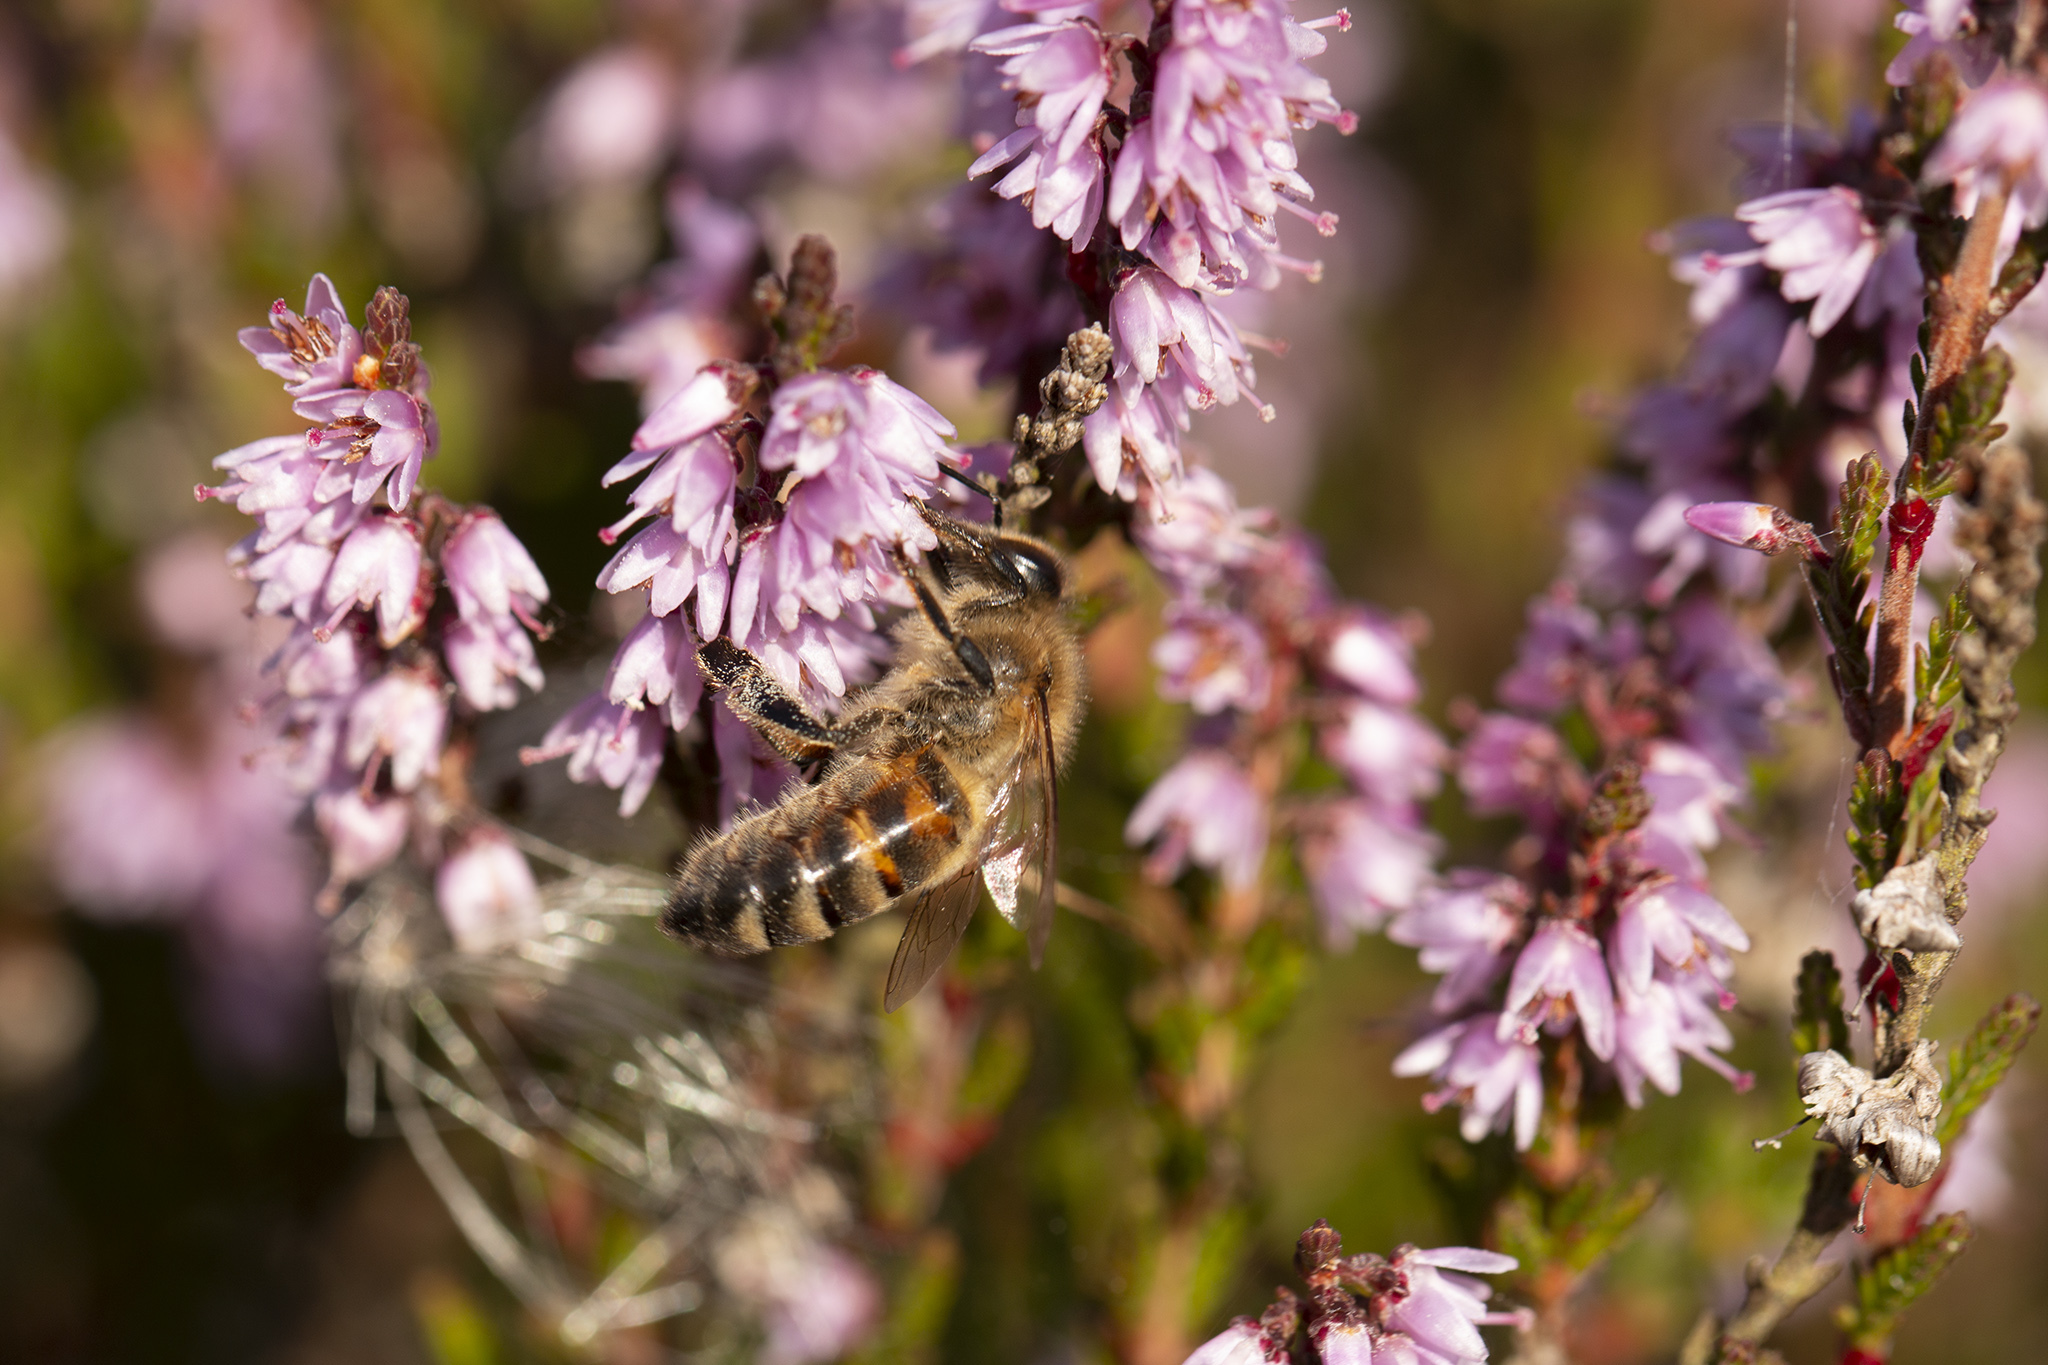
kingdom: Animalia
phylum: Arthropoda
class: Insecta
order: Hymenoptera
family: Apidae
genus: Apis
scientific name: Apis mellifera
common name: Honey bee
